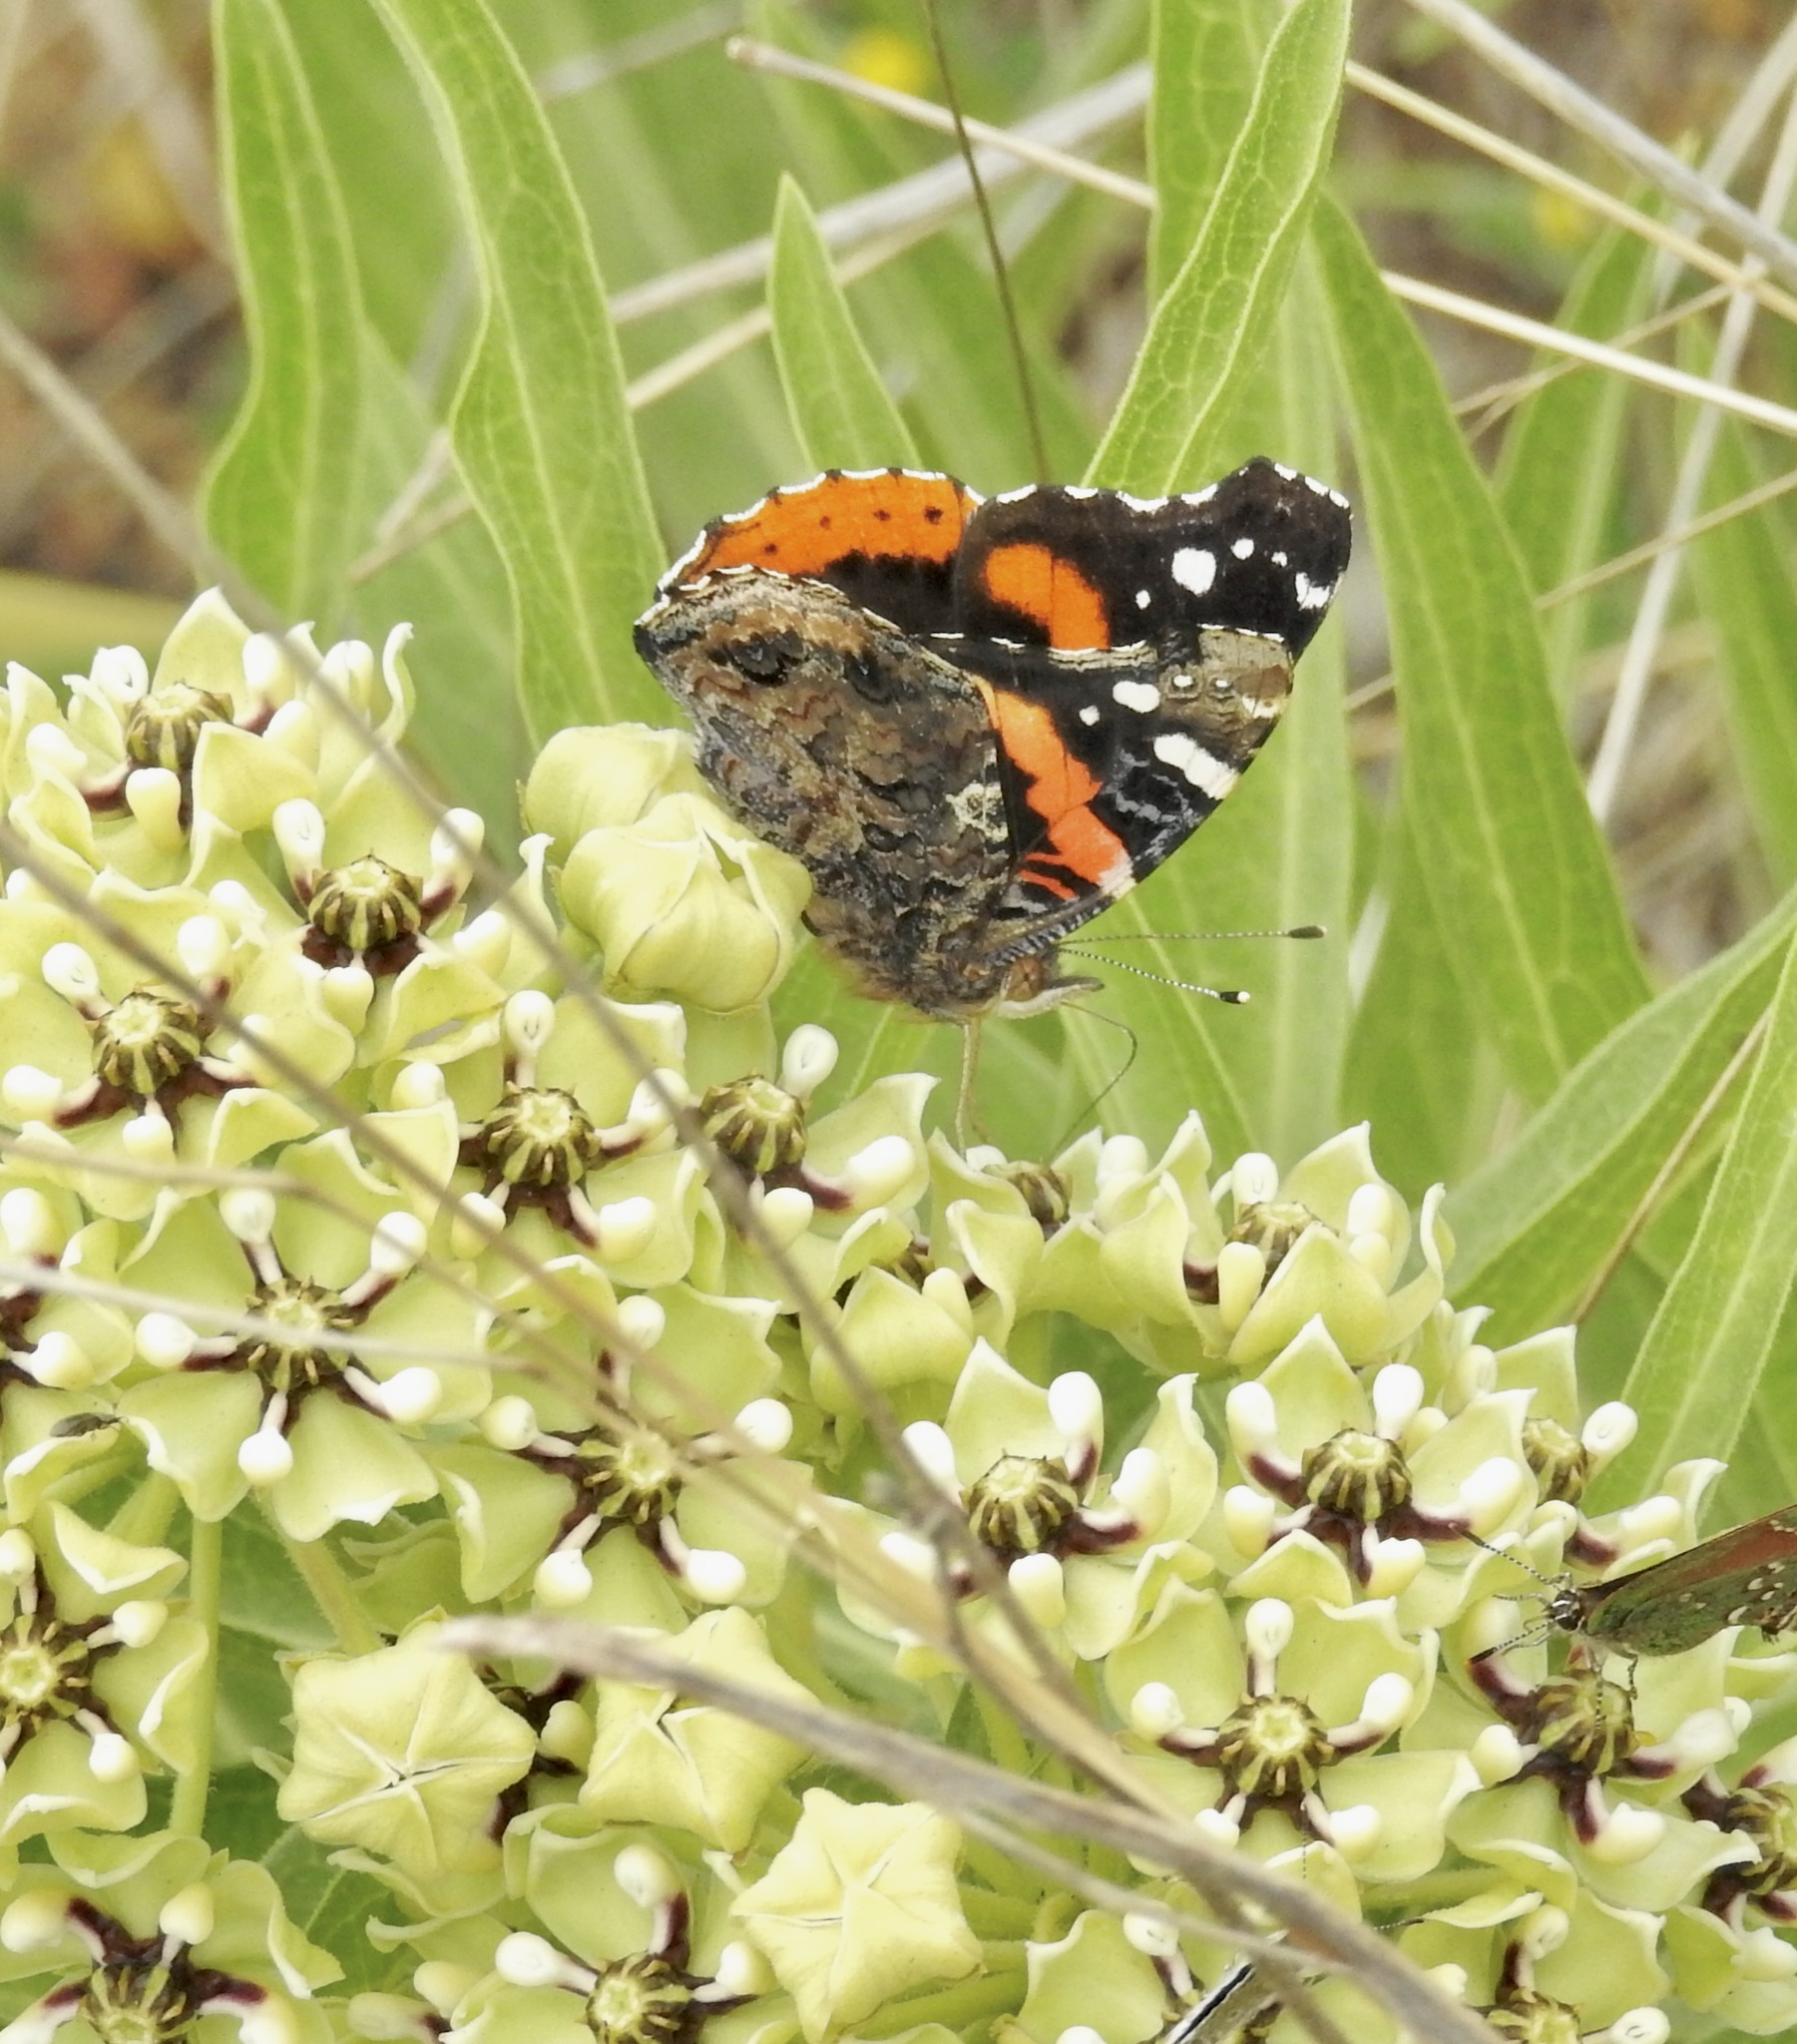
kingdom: Animalia
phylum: Arthropoda
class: Insecta
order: Lepidoptera
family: Nymphalidae
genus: Vanessa
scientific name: Vanessa atalanta
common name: Red admiral
